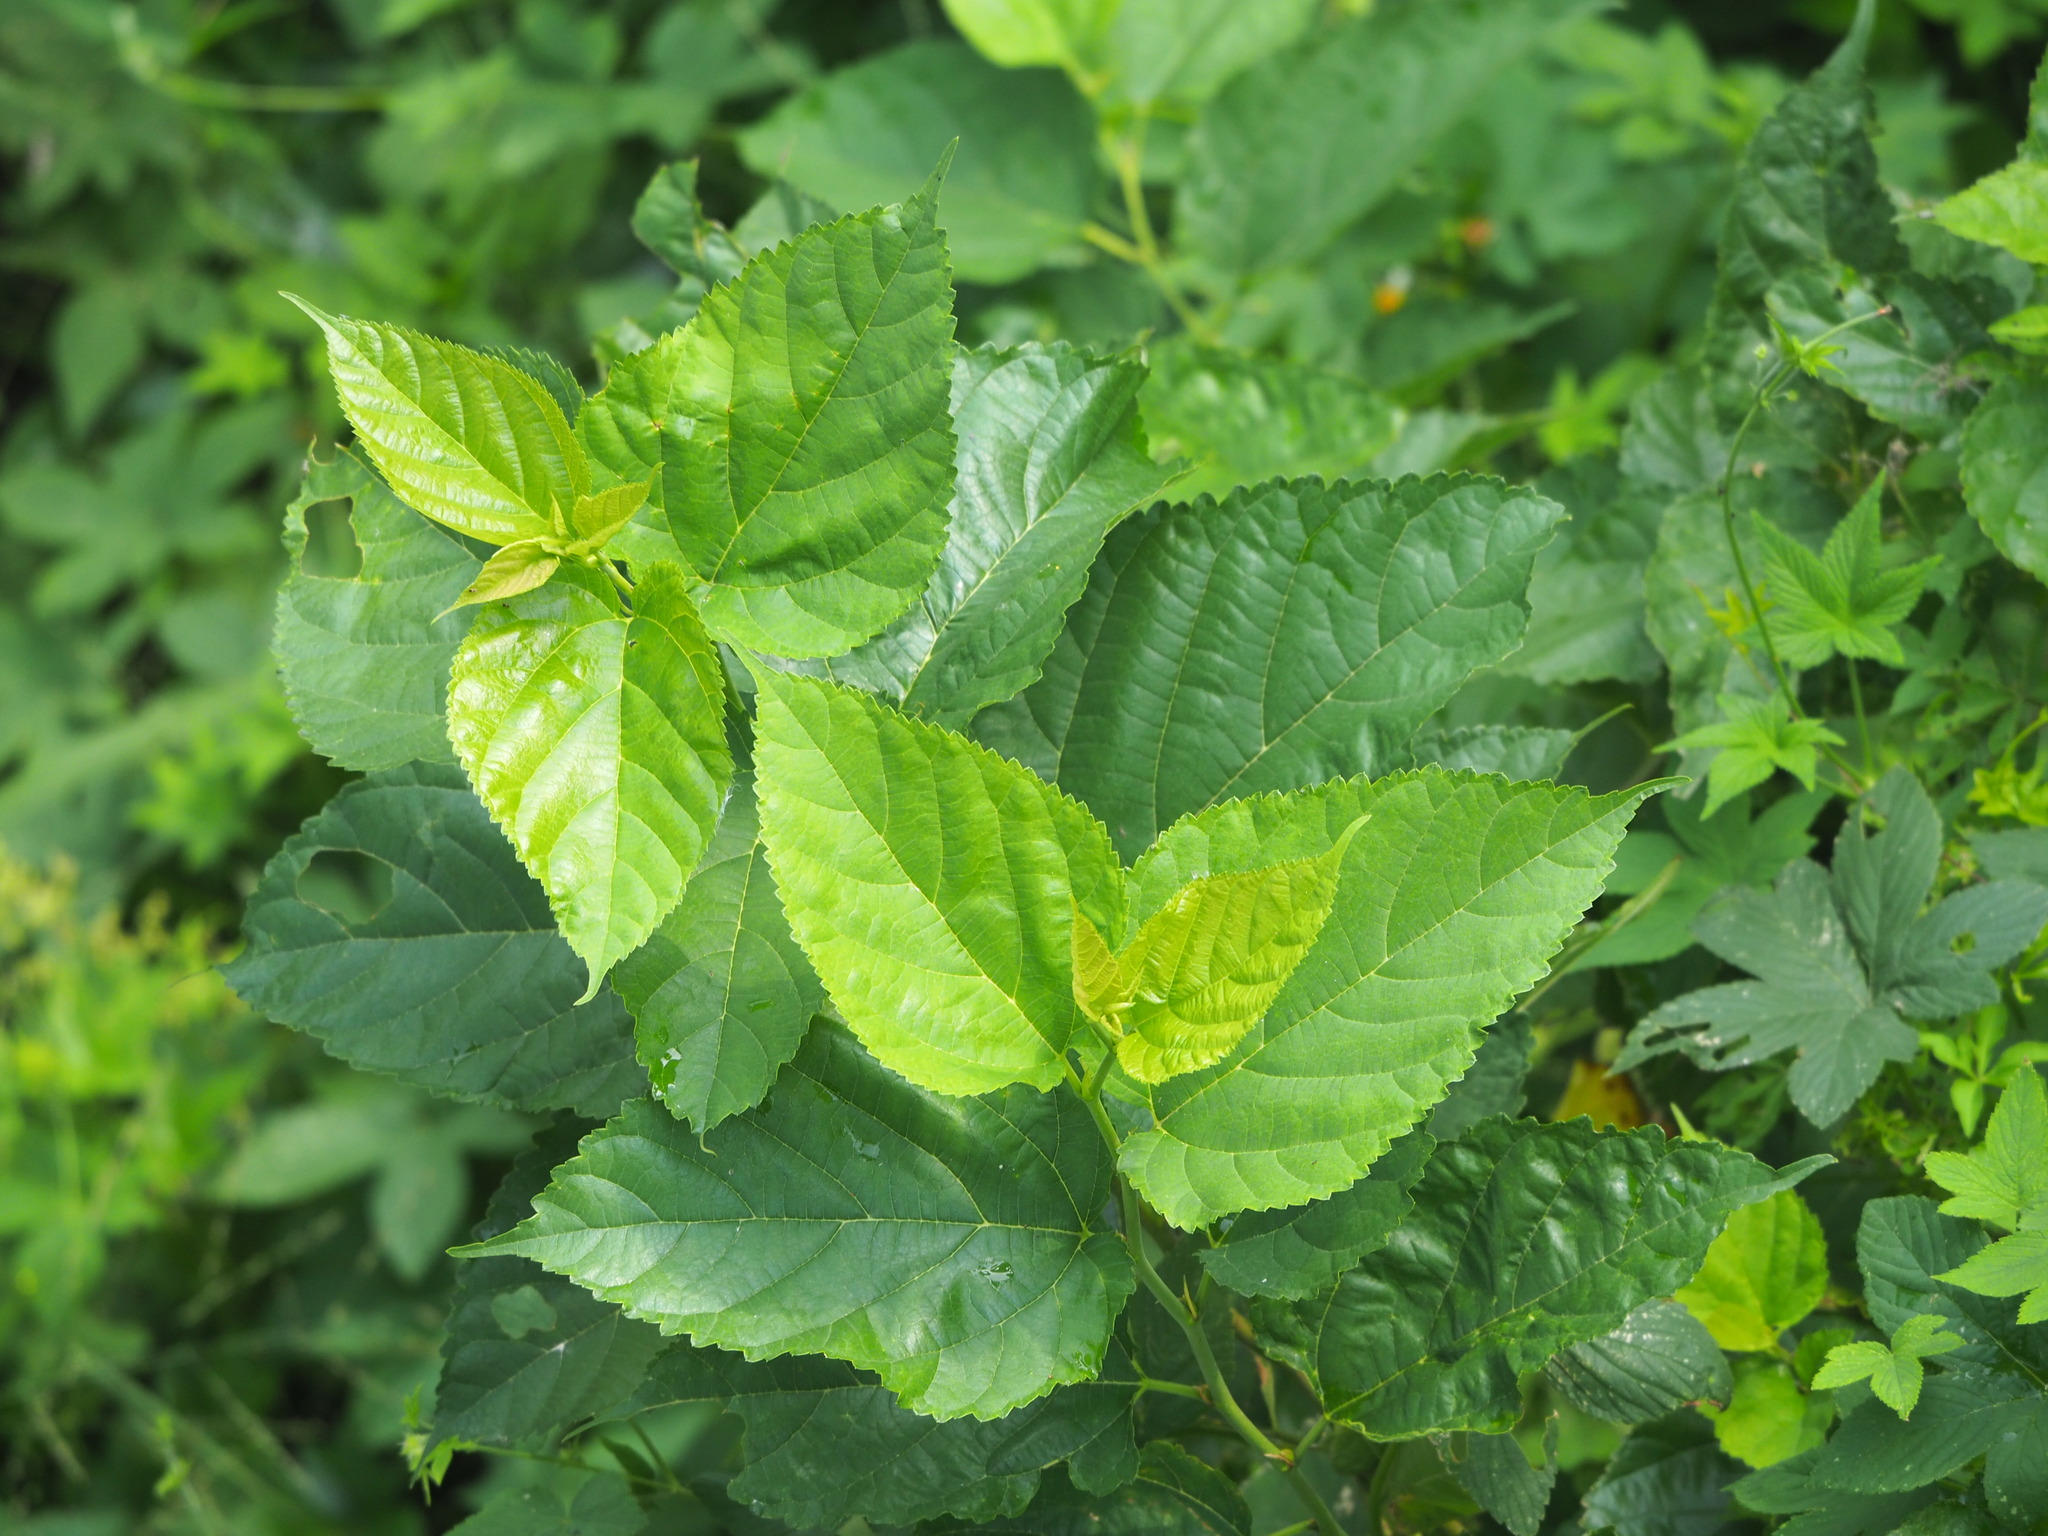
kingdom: Plantae
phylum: Tracheophyta
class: Magnoliopsida
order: Rosales
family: Moraceae
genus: Morus
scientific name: Morus indica
